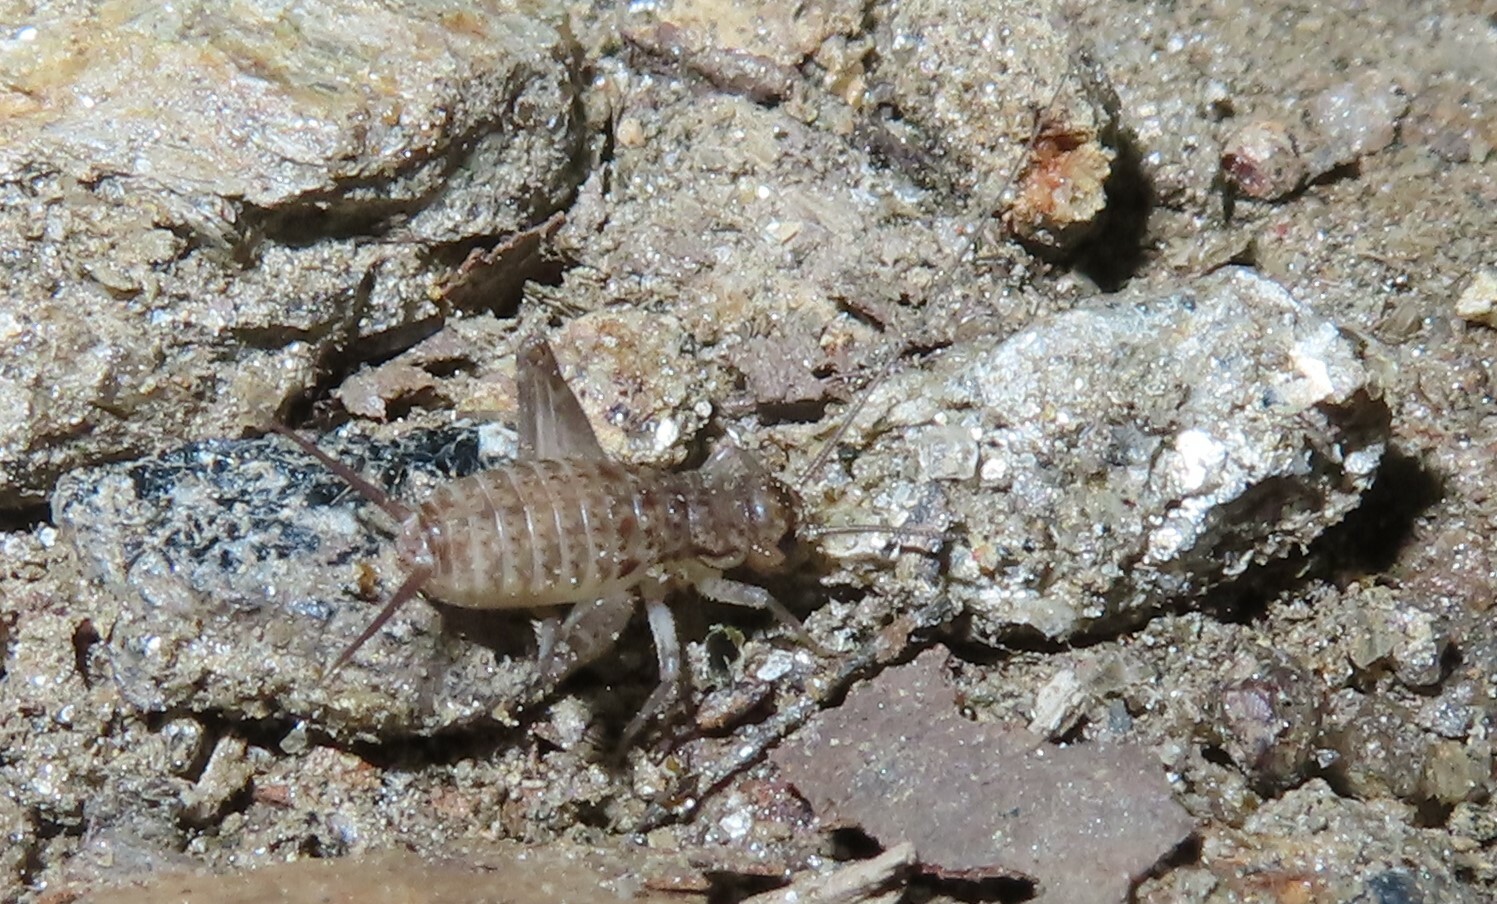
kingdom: Animalia
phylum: Arthropoda
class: Insecta
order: Orthoptera
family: Gryllidae
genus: Velarifictorus
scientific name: Velarifictorus micado
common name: Japanese burrowing cricket
